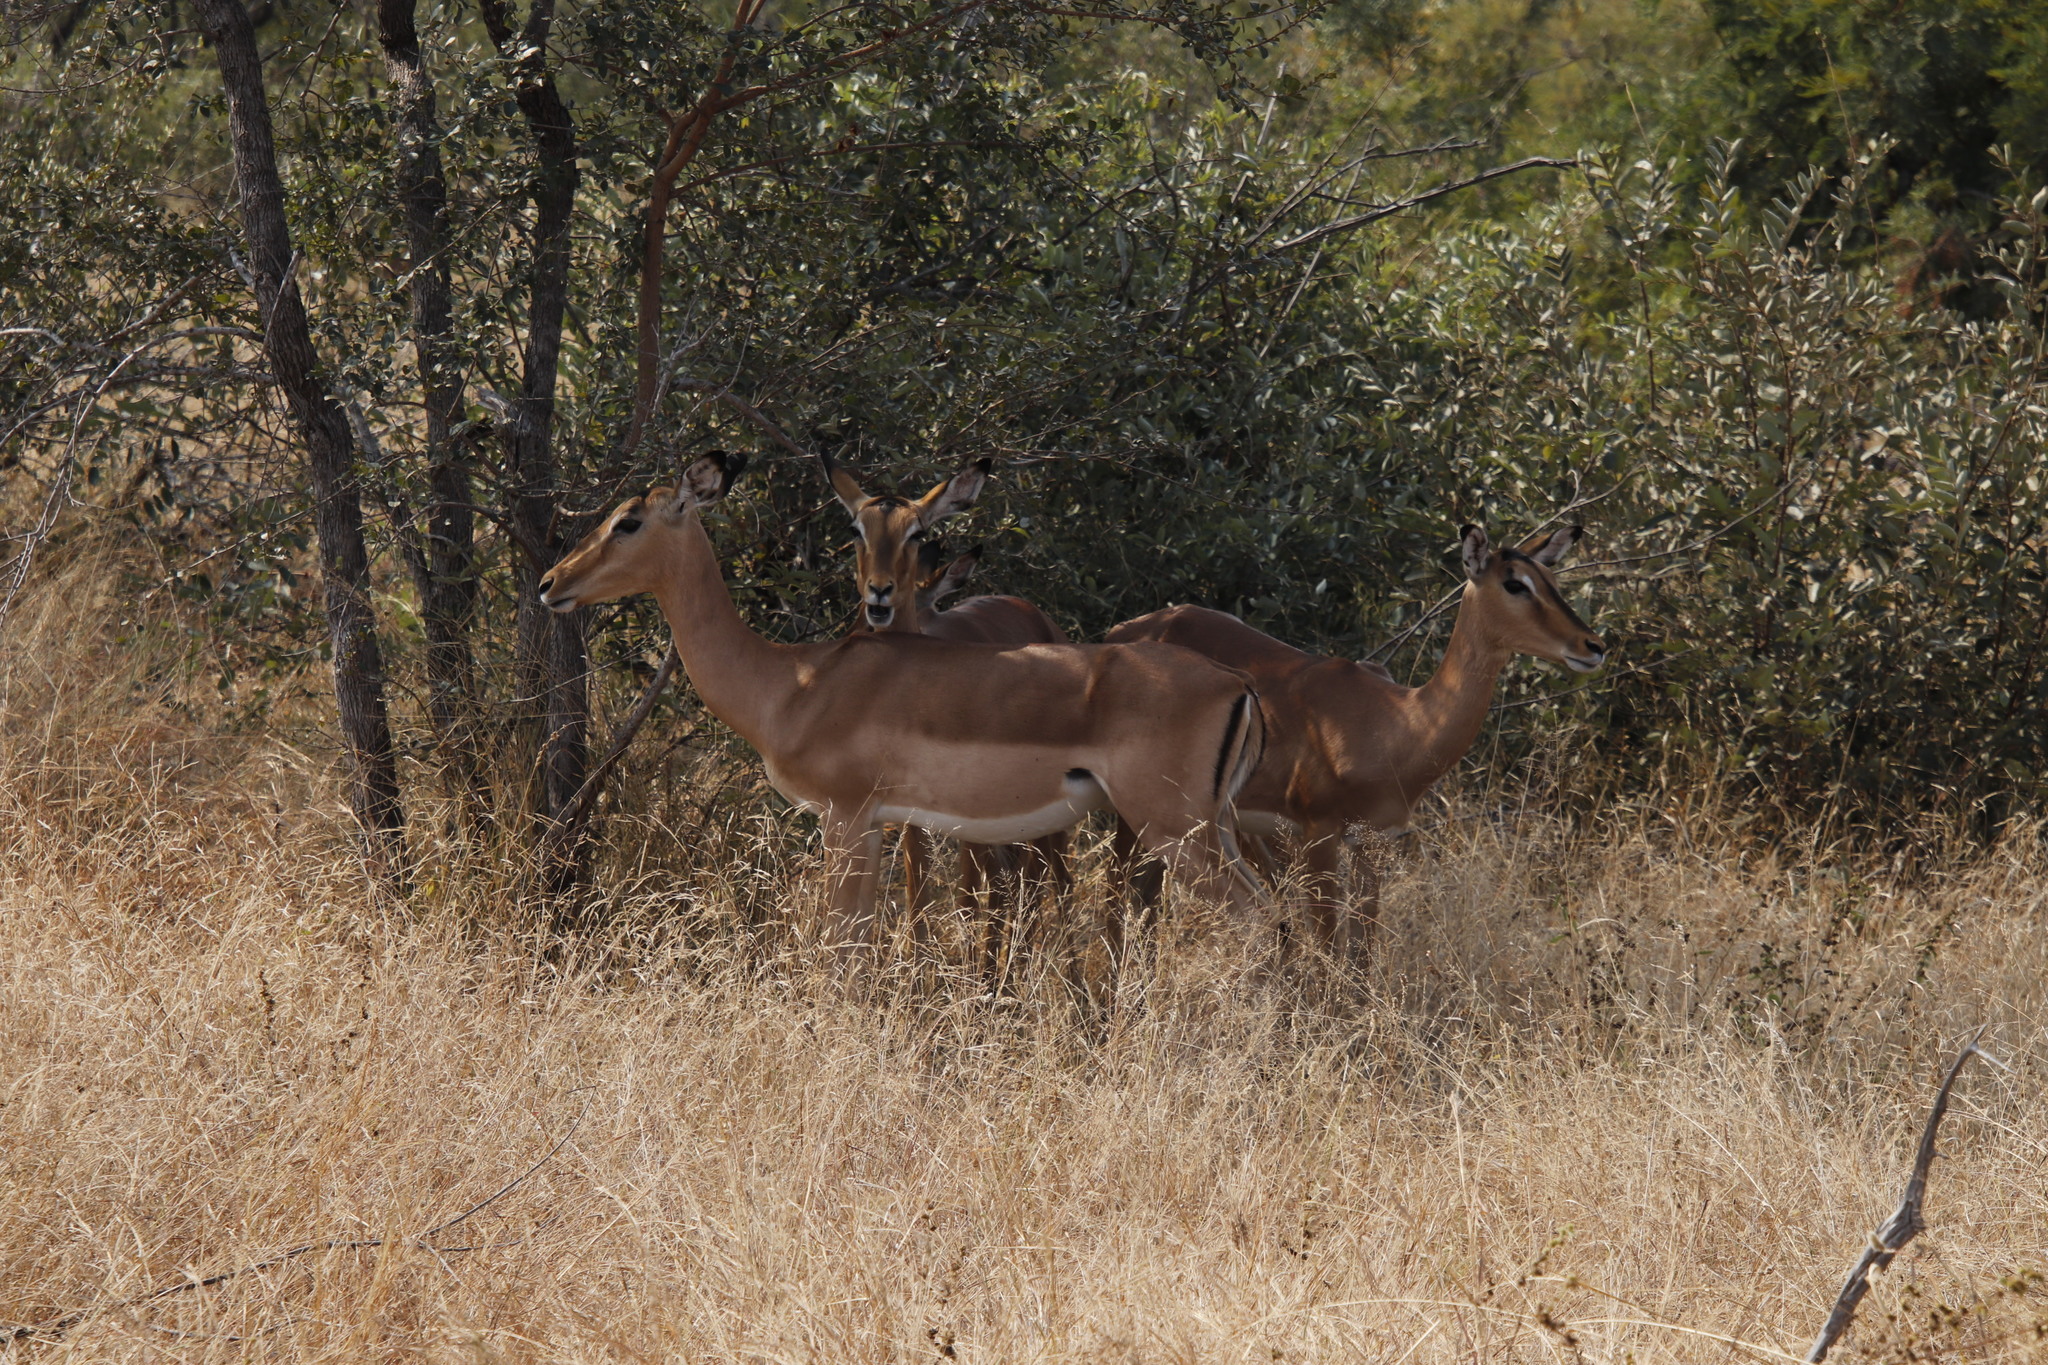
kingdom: Animalia
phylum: Chordata
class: Mammalia
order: Artiodactyla
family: Bovidae
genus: Aepyceros
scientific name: Aepyceros melampus
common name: Impala
